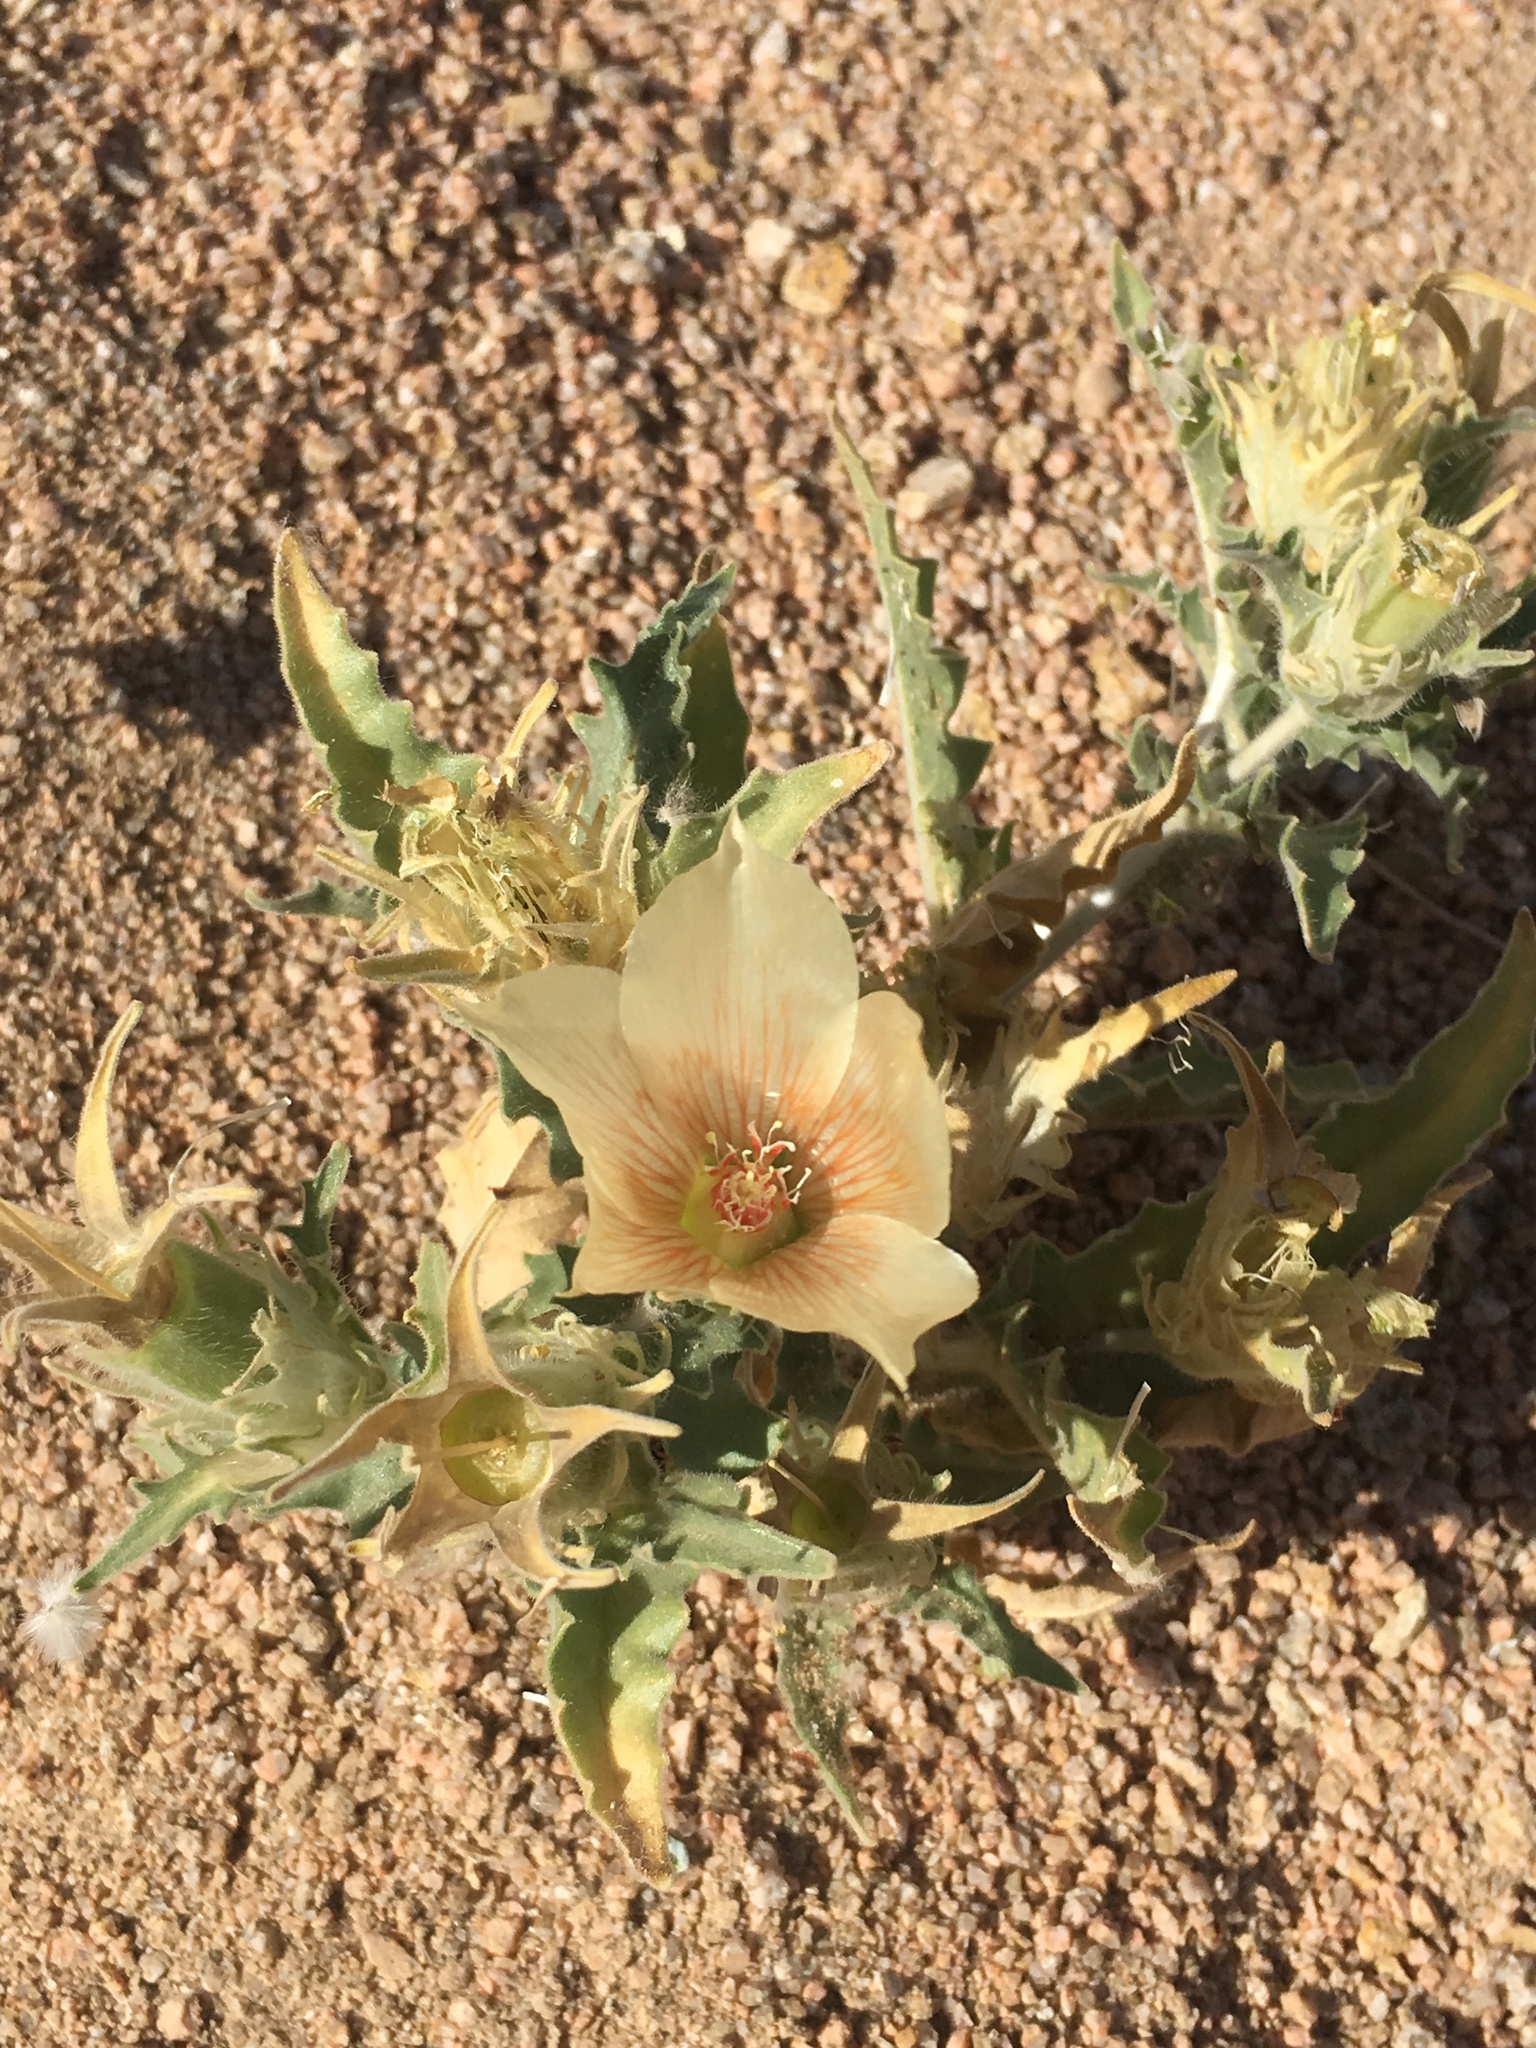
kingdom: Plantae
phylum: Tracheophyta
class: Magnoliopsida
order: Cornales
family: Loasaceae
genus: Mentzelia
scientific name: Mentzelia involucrata
